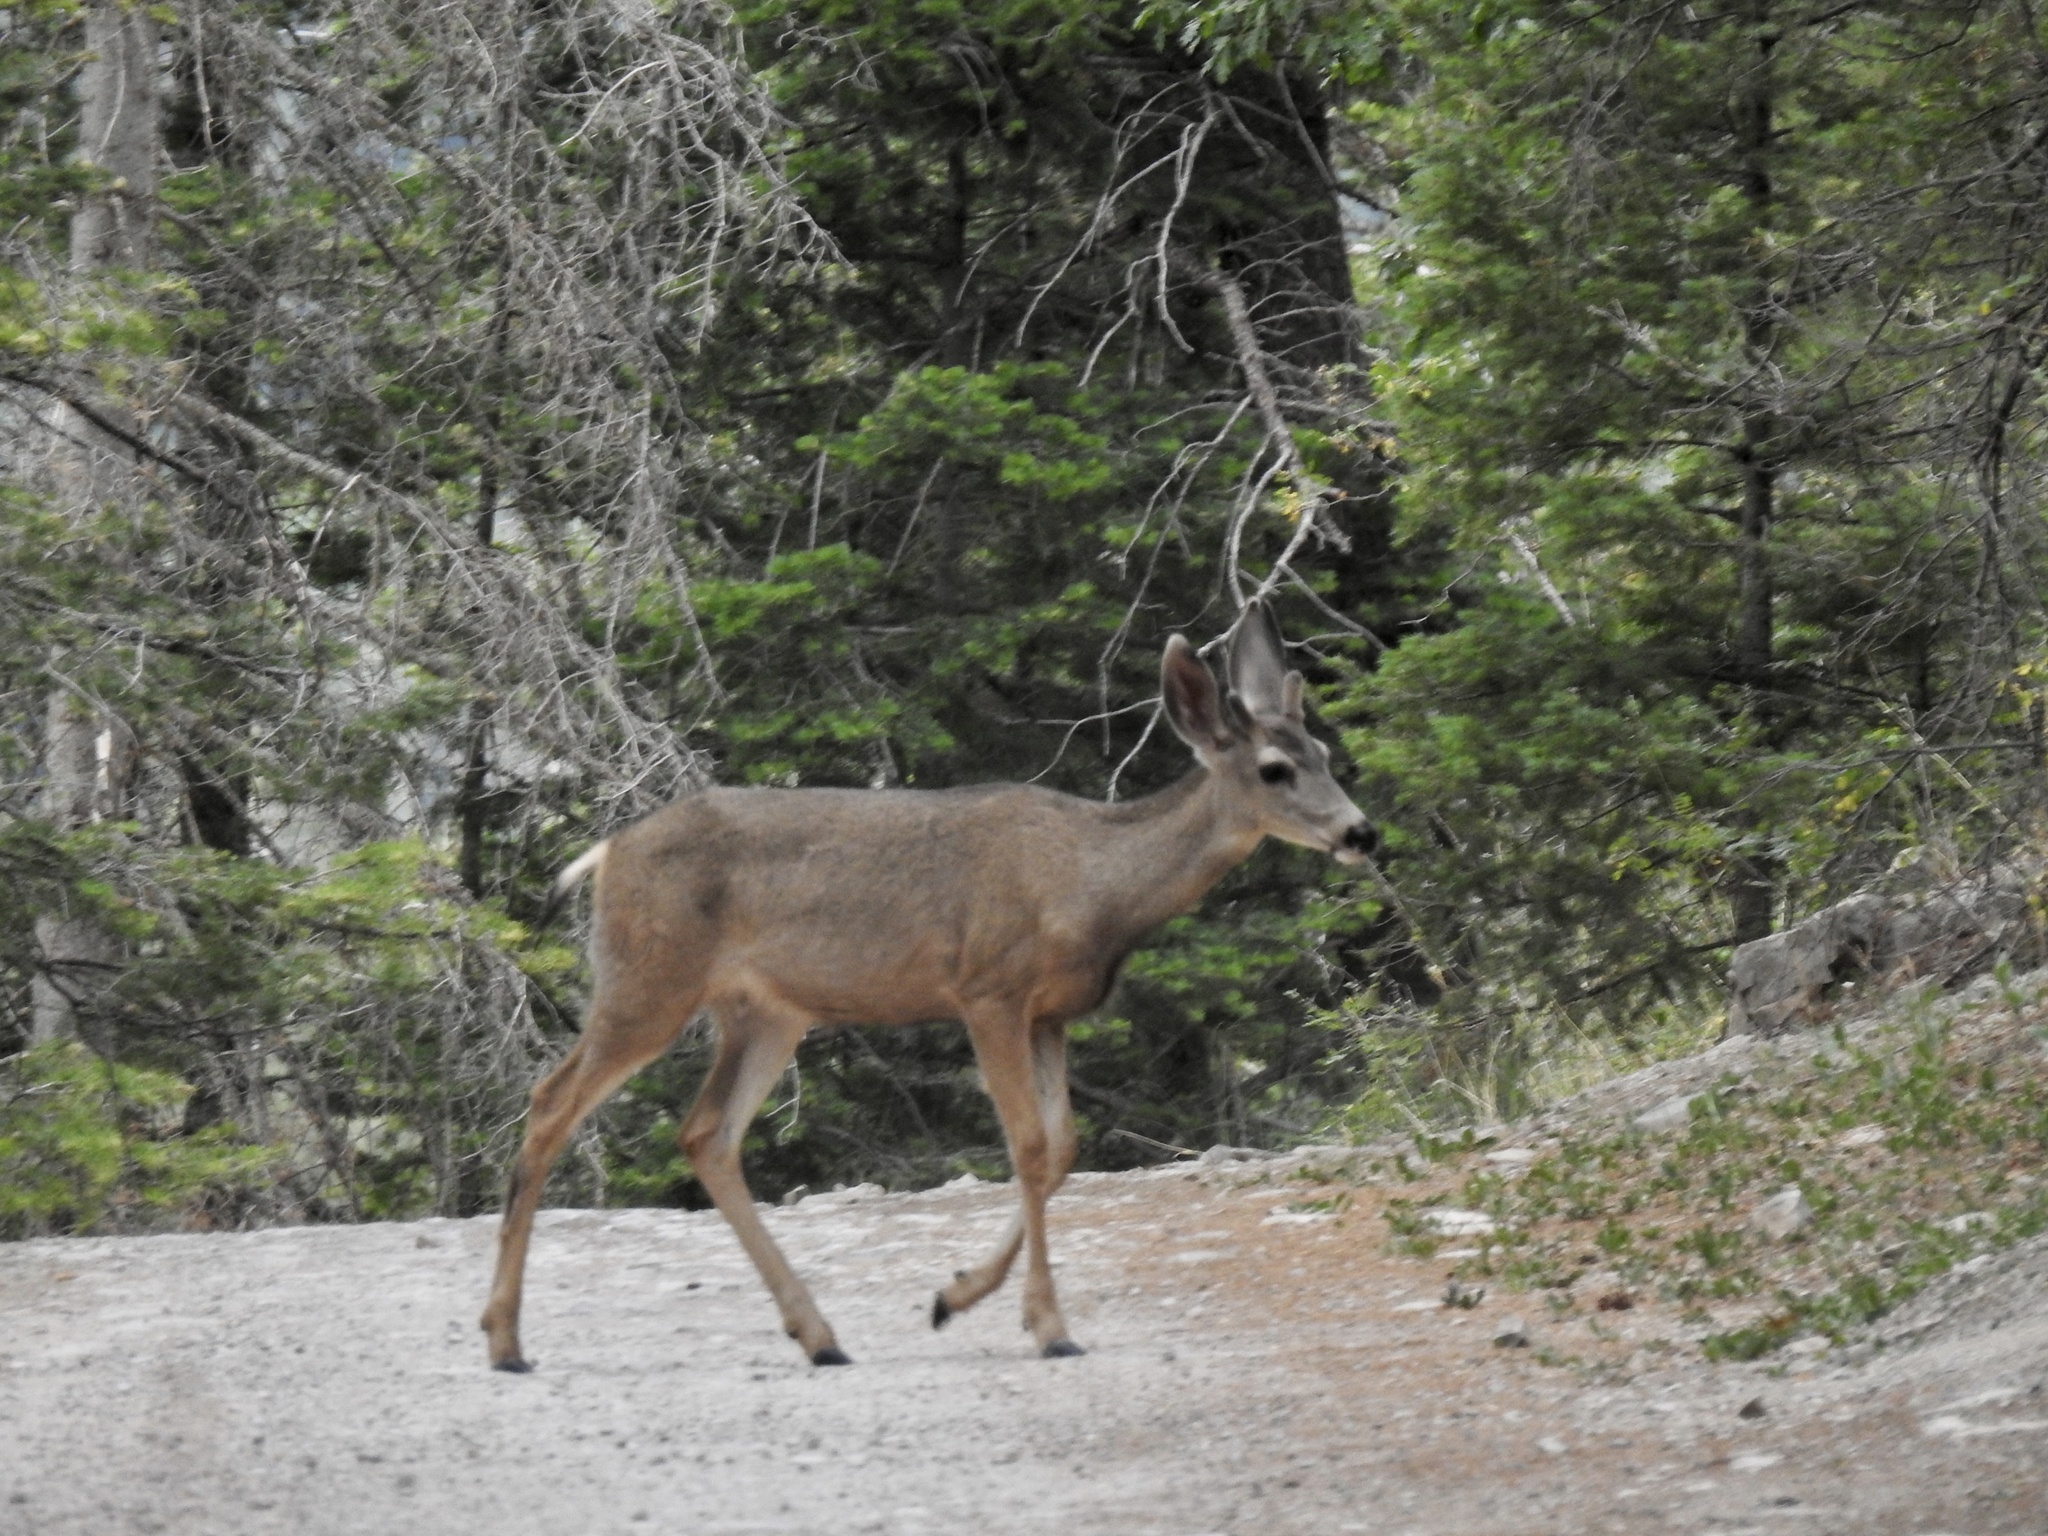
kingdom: Animalia
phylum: Chordata
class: Mammalia
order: Artiodactyla
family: Cervidae
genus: Odocoileus
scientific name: Odocoileus hemionus
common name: Mule deer
